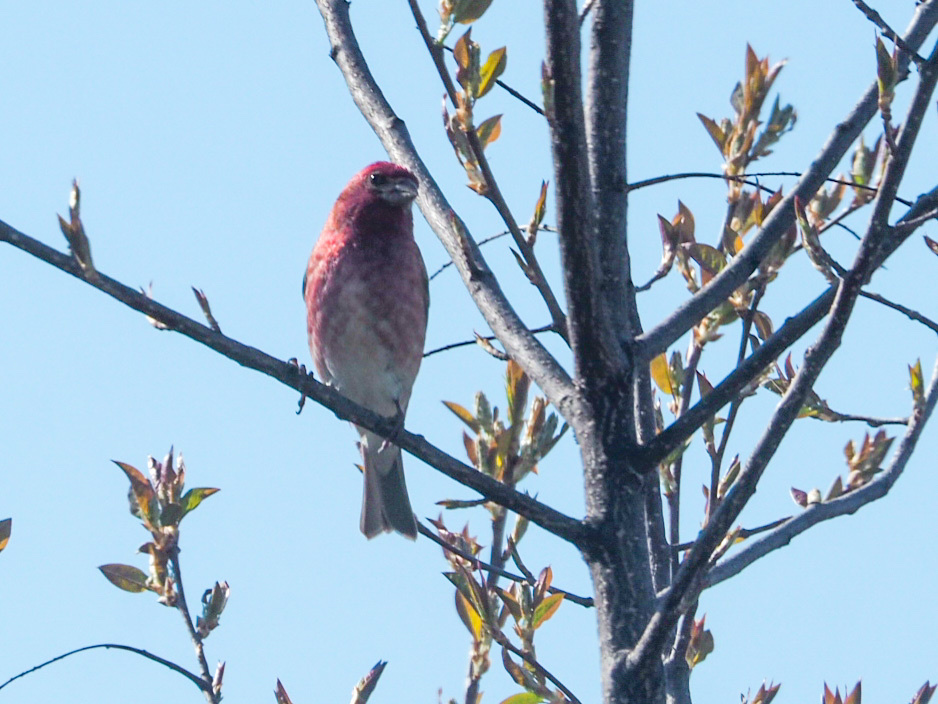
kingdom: Animalia
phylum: Chordata
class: Aves
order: Passeriformes
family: Fringillidae
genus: Haemorhous
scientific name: Haemorhous purpureus
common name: Purple finch
